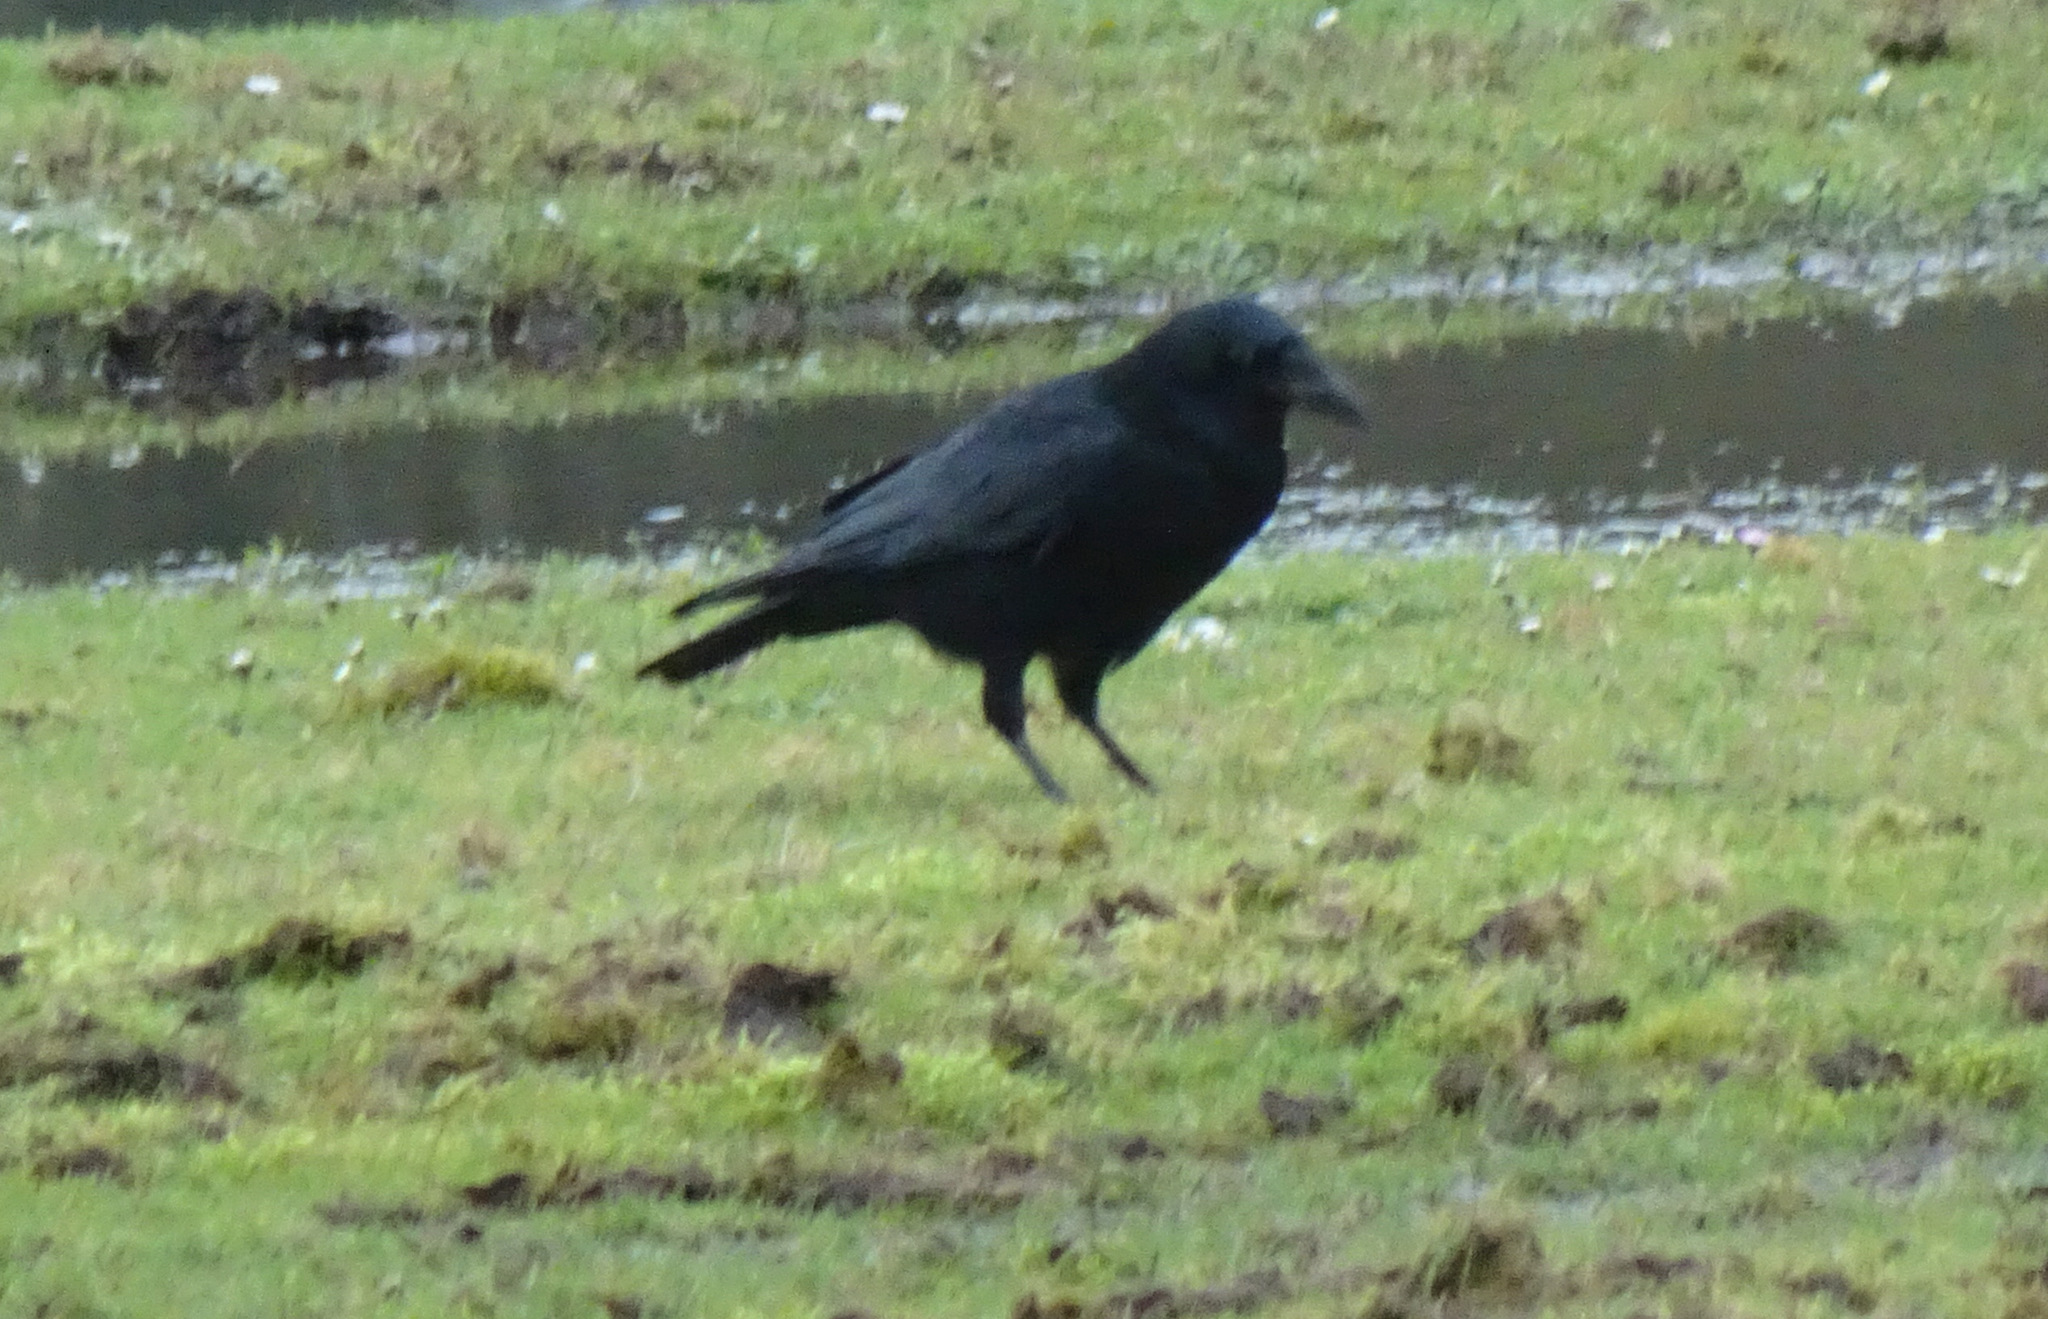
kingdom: Animalia
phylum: Chordata
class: Aves
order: Passeriformes
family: Corvidae
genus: Corvus
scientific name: Corvus corone
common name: Carrion crow
